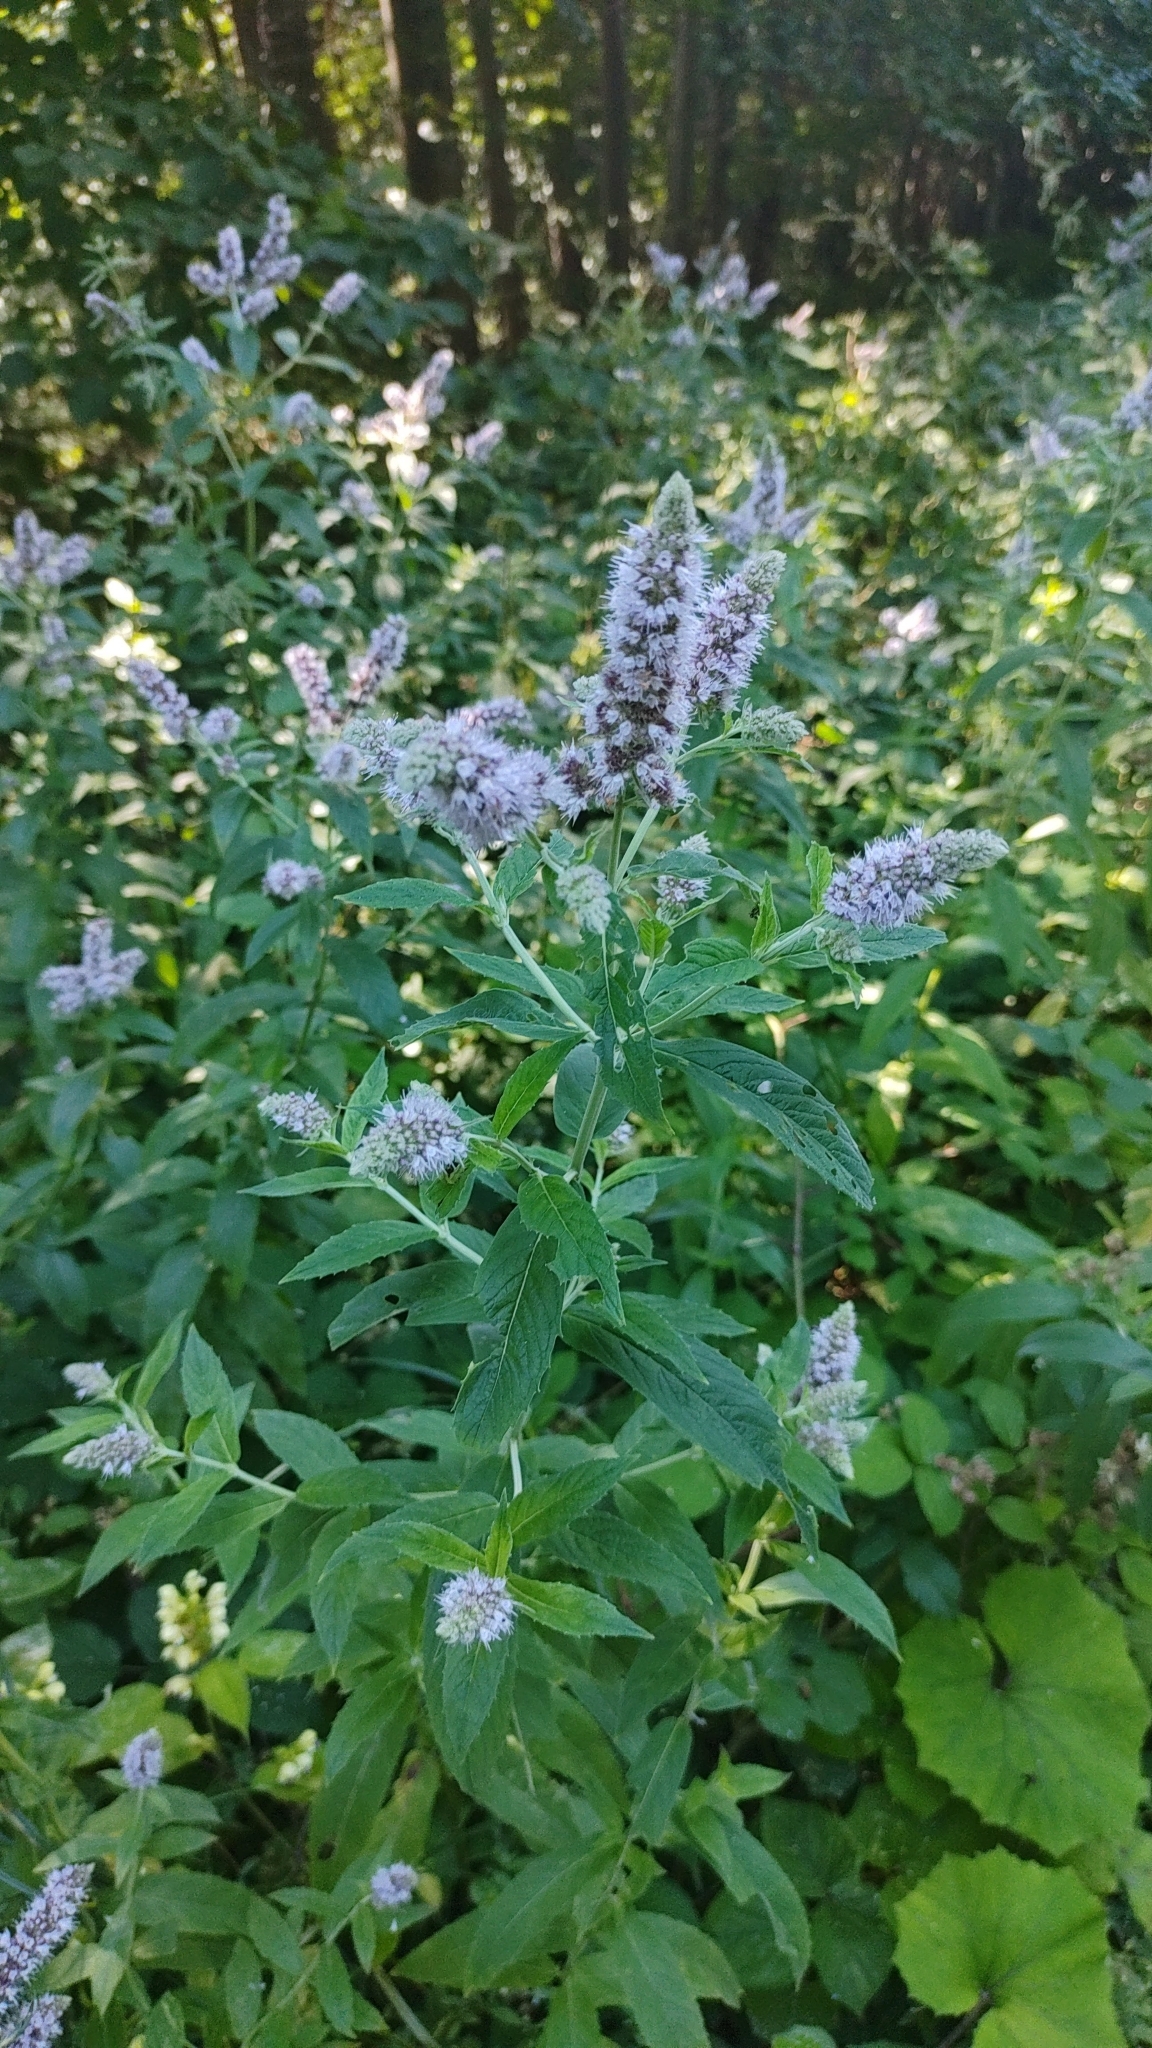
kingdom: Plantae
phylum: Tracheophyta
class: Magnoliopsida
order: Lamiales
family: Lamiaceae
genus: Mentha
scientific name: Mentha longifolia
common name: Horse mint
